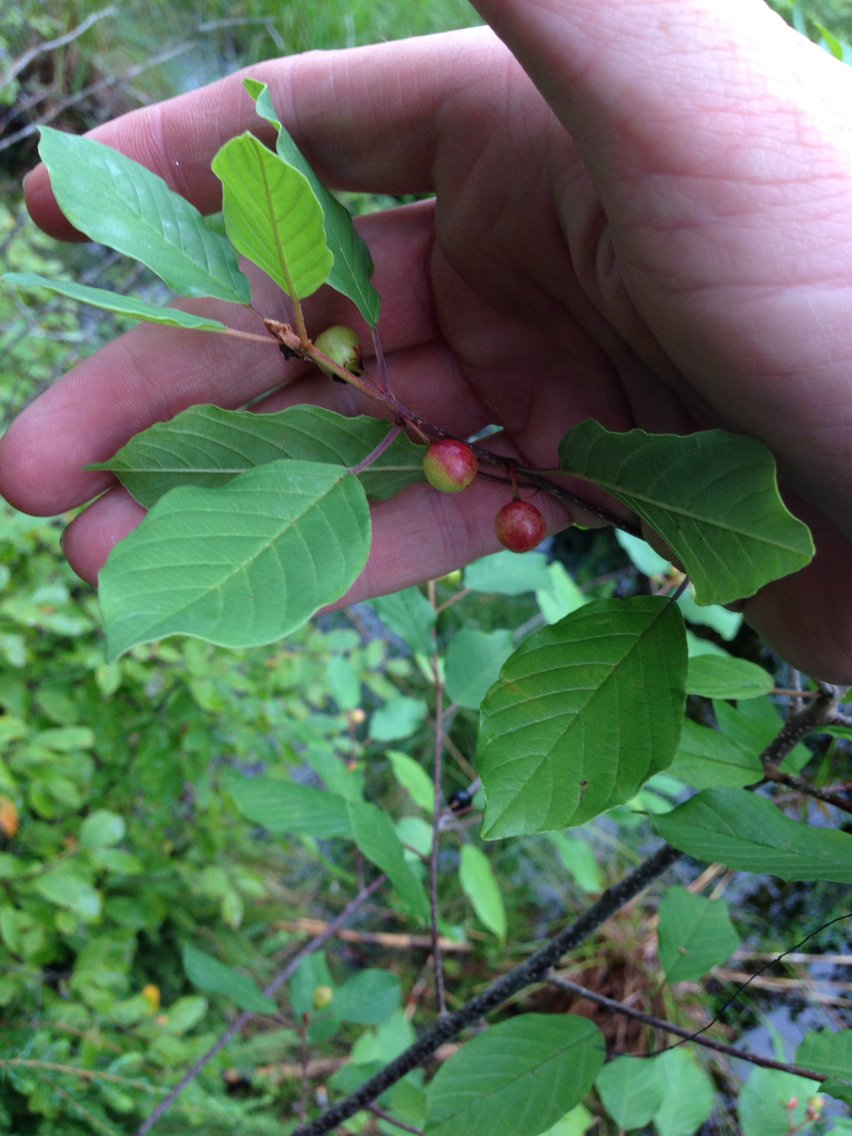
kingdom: Plantae
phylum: Tracheophyta
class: Magnoliopsida
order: Rosales
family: Rhamnaceae
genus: Frangula
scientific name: Frangula alnus
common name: Alder buckthorn
